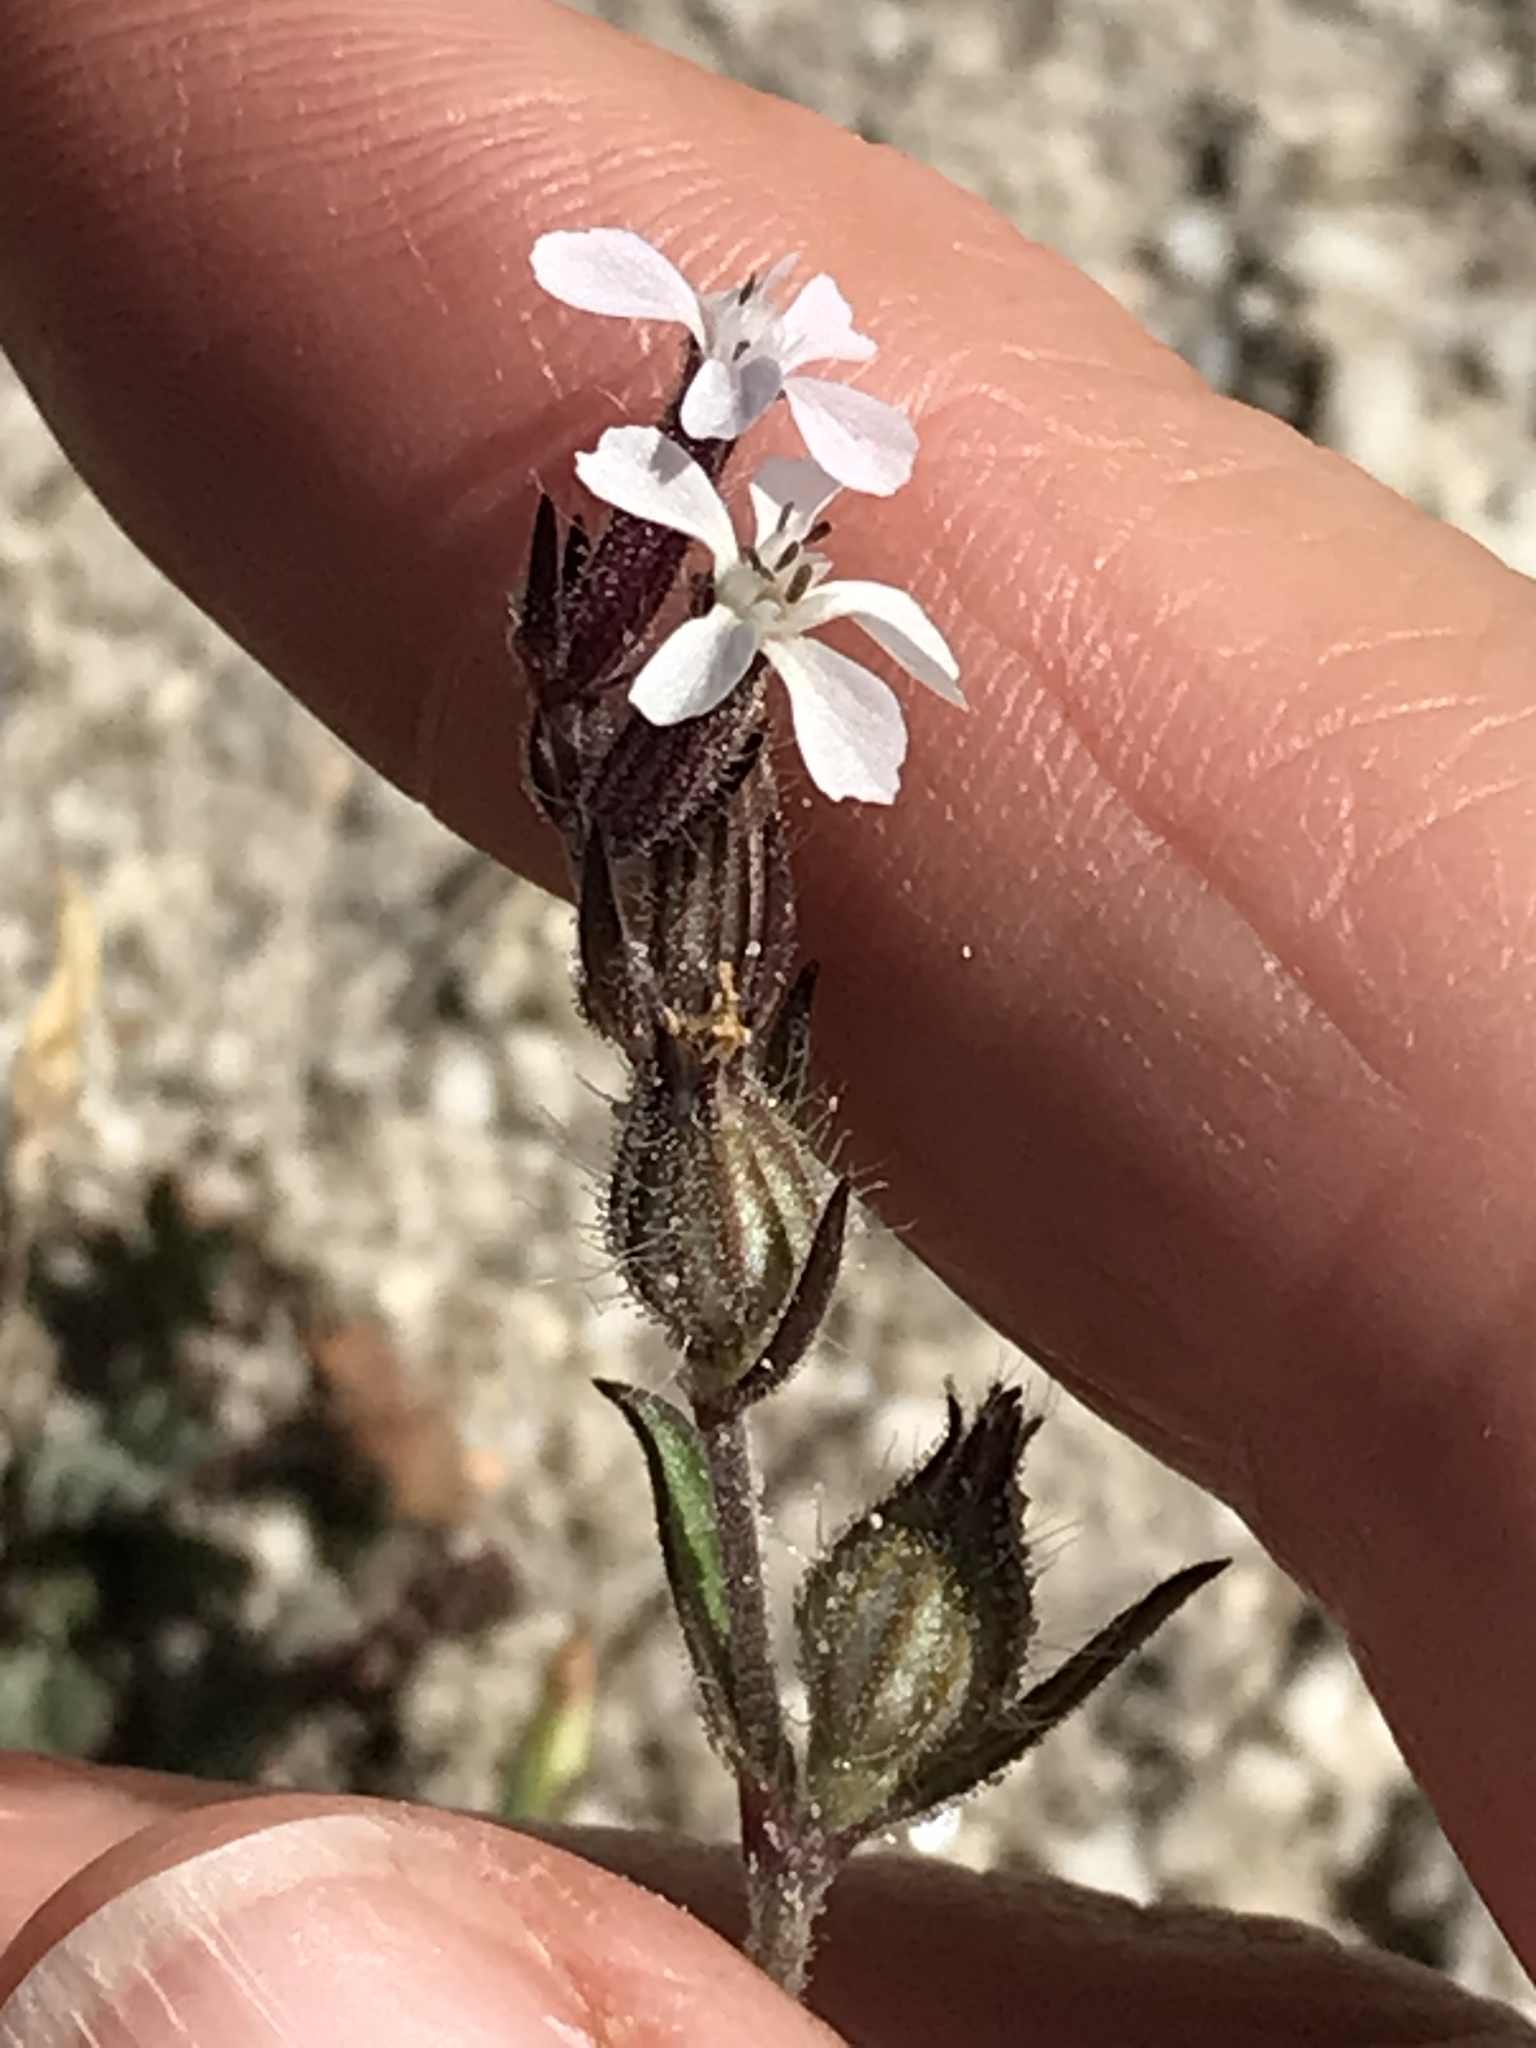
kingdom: Plantae
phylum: Tracheophyta
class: Magnoliopsida
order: Caryophyllales
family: Caryophyllaceae
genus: Silene
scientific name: Silene gallica
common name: Small-flowered catchfly
